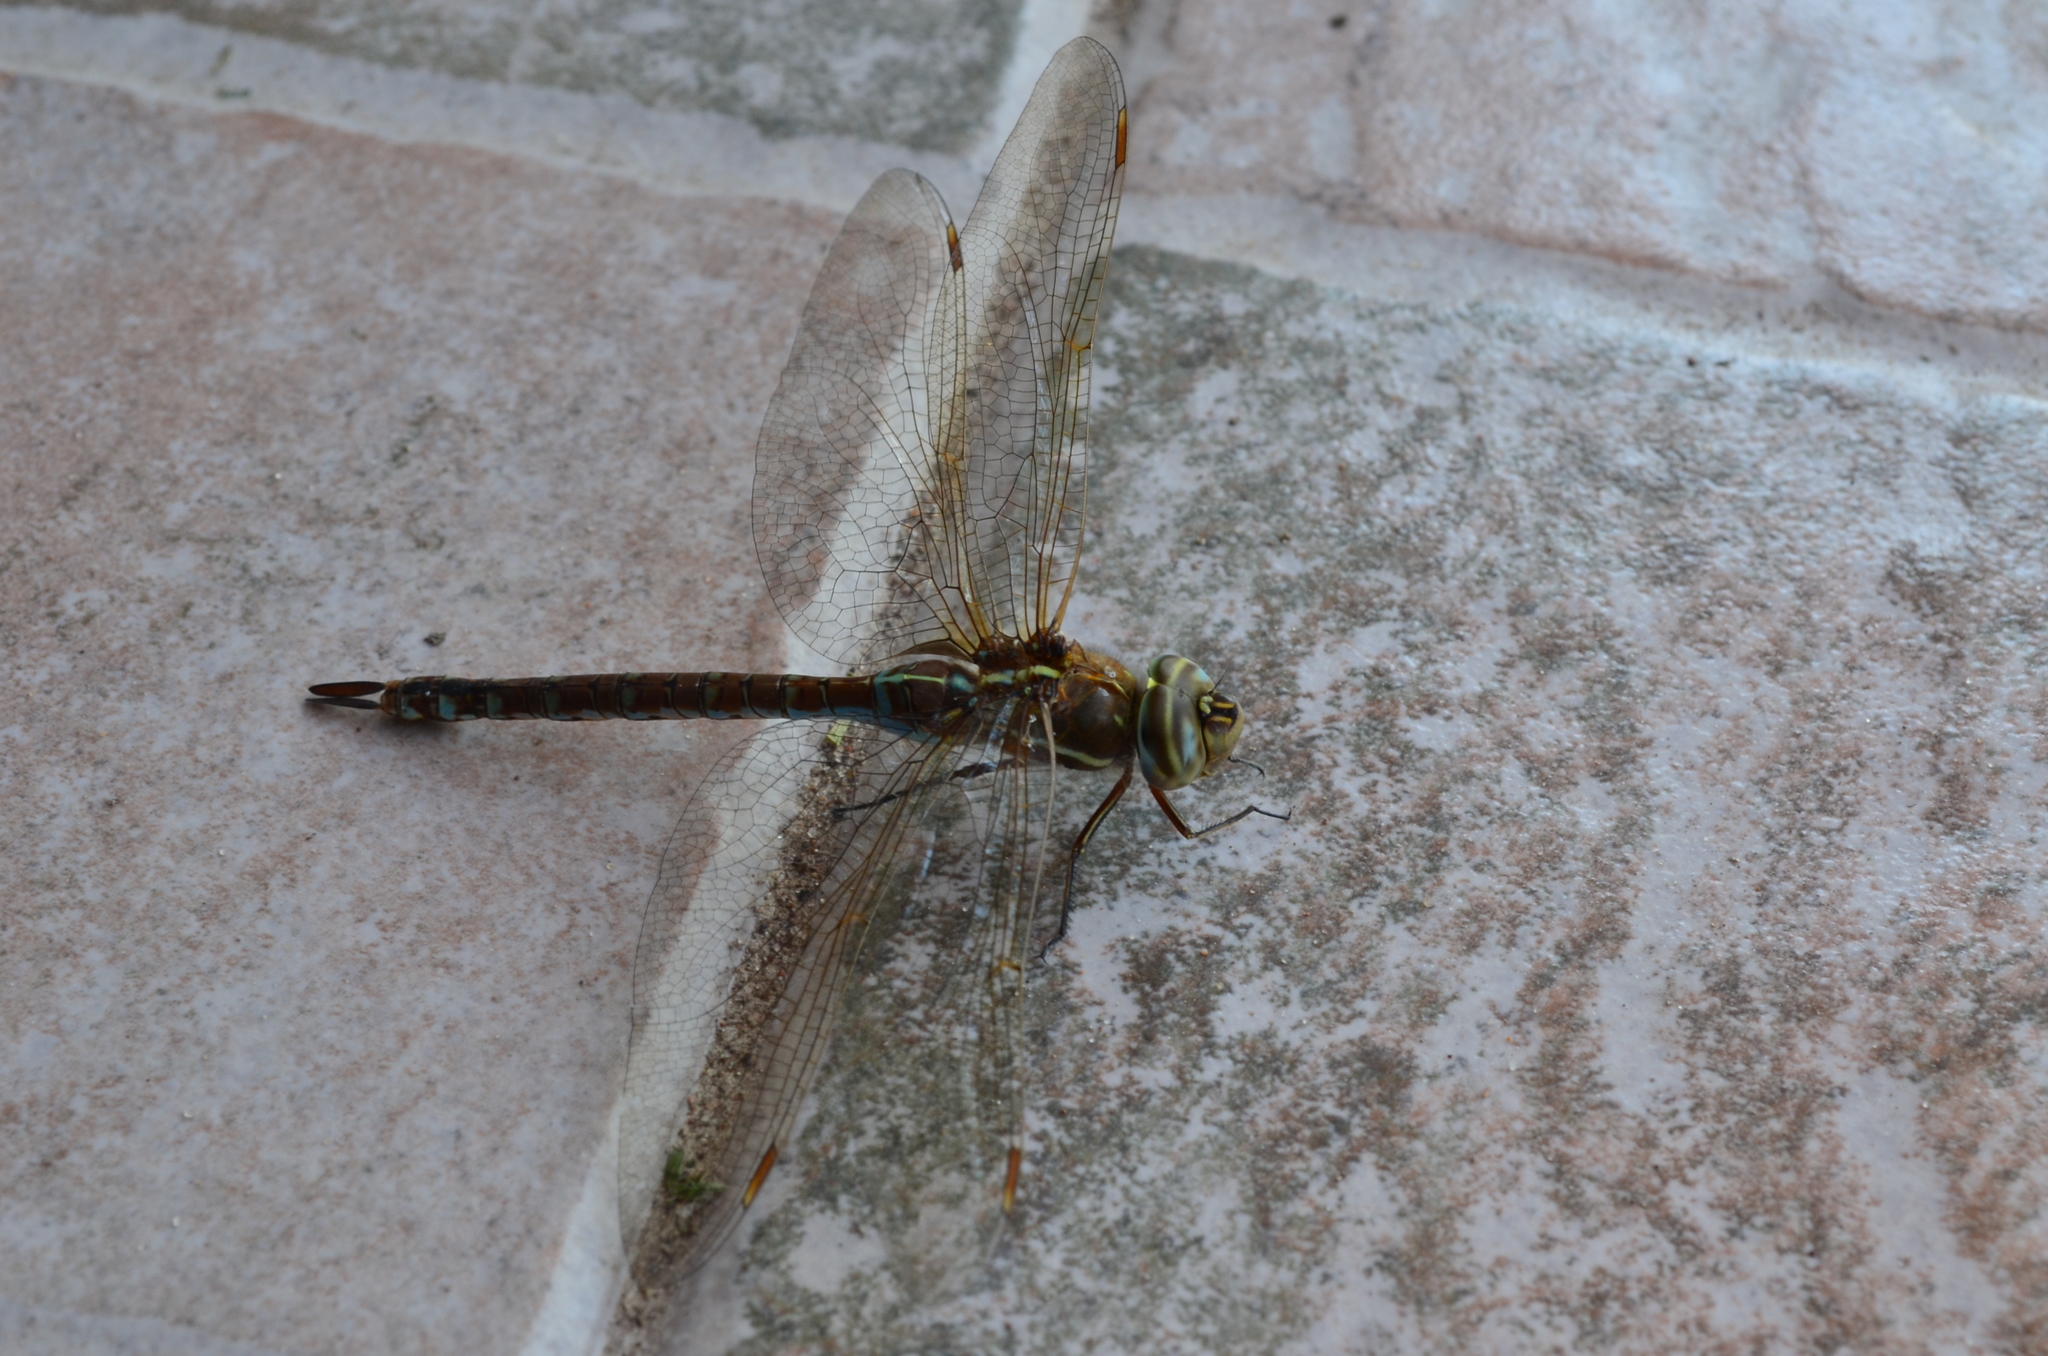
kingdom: Animalia
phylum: Arthropoda
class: Insecta
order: Odonata
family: Aeshnidae
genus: Rhionaeschna
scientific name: Rhionaeschna bonariensis
